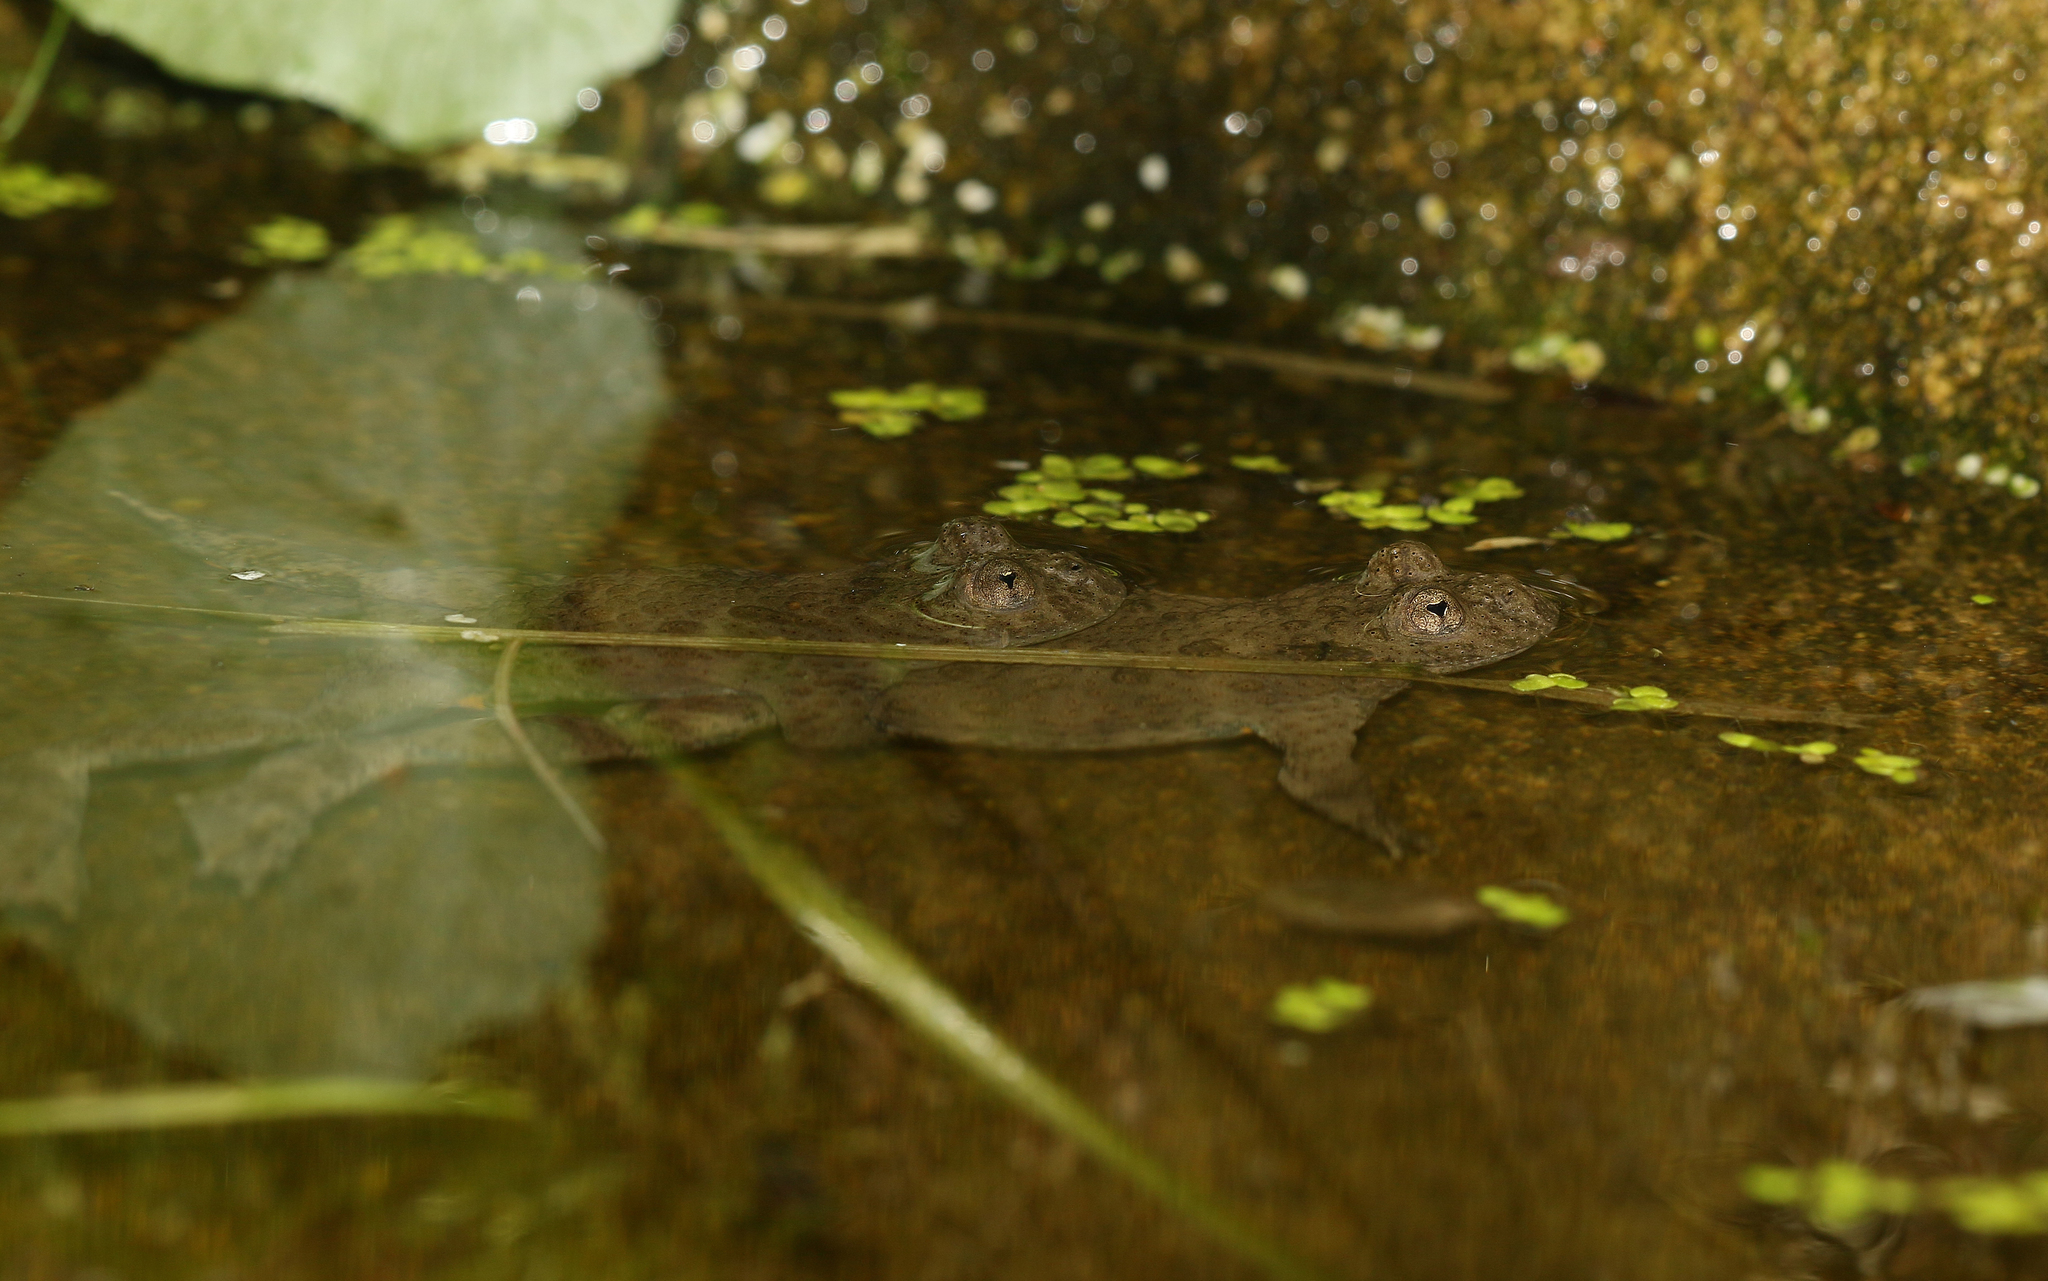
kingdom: Animalia
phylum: Chordata
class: Amphibia
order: Anura
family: Bombinatoridae
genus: Bombina
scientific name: Bombina variegata
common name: Yellow-bellied toad
